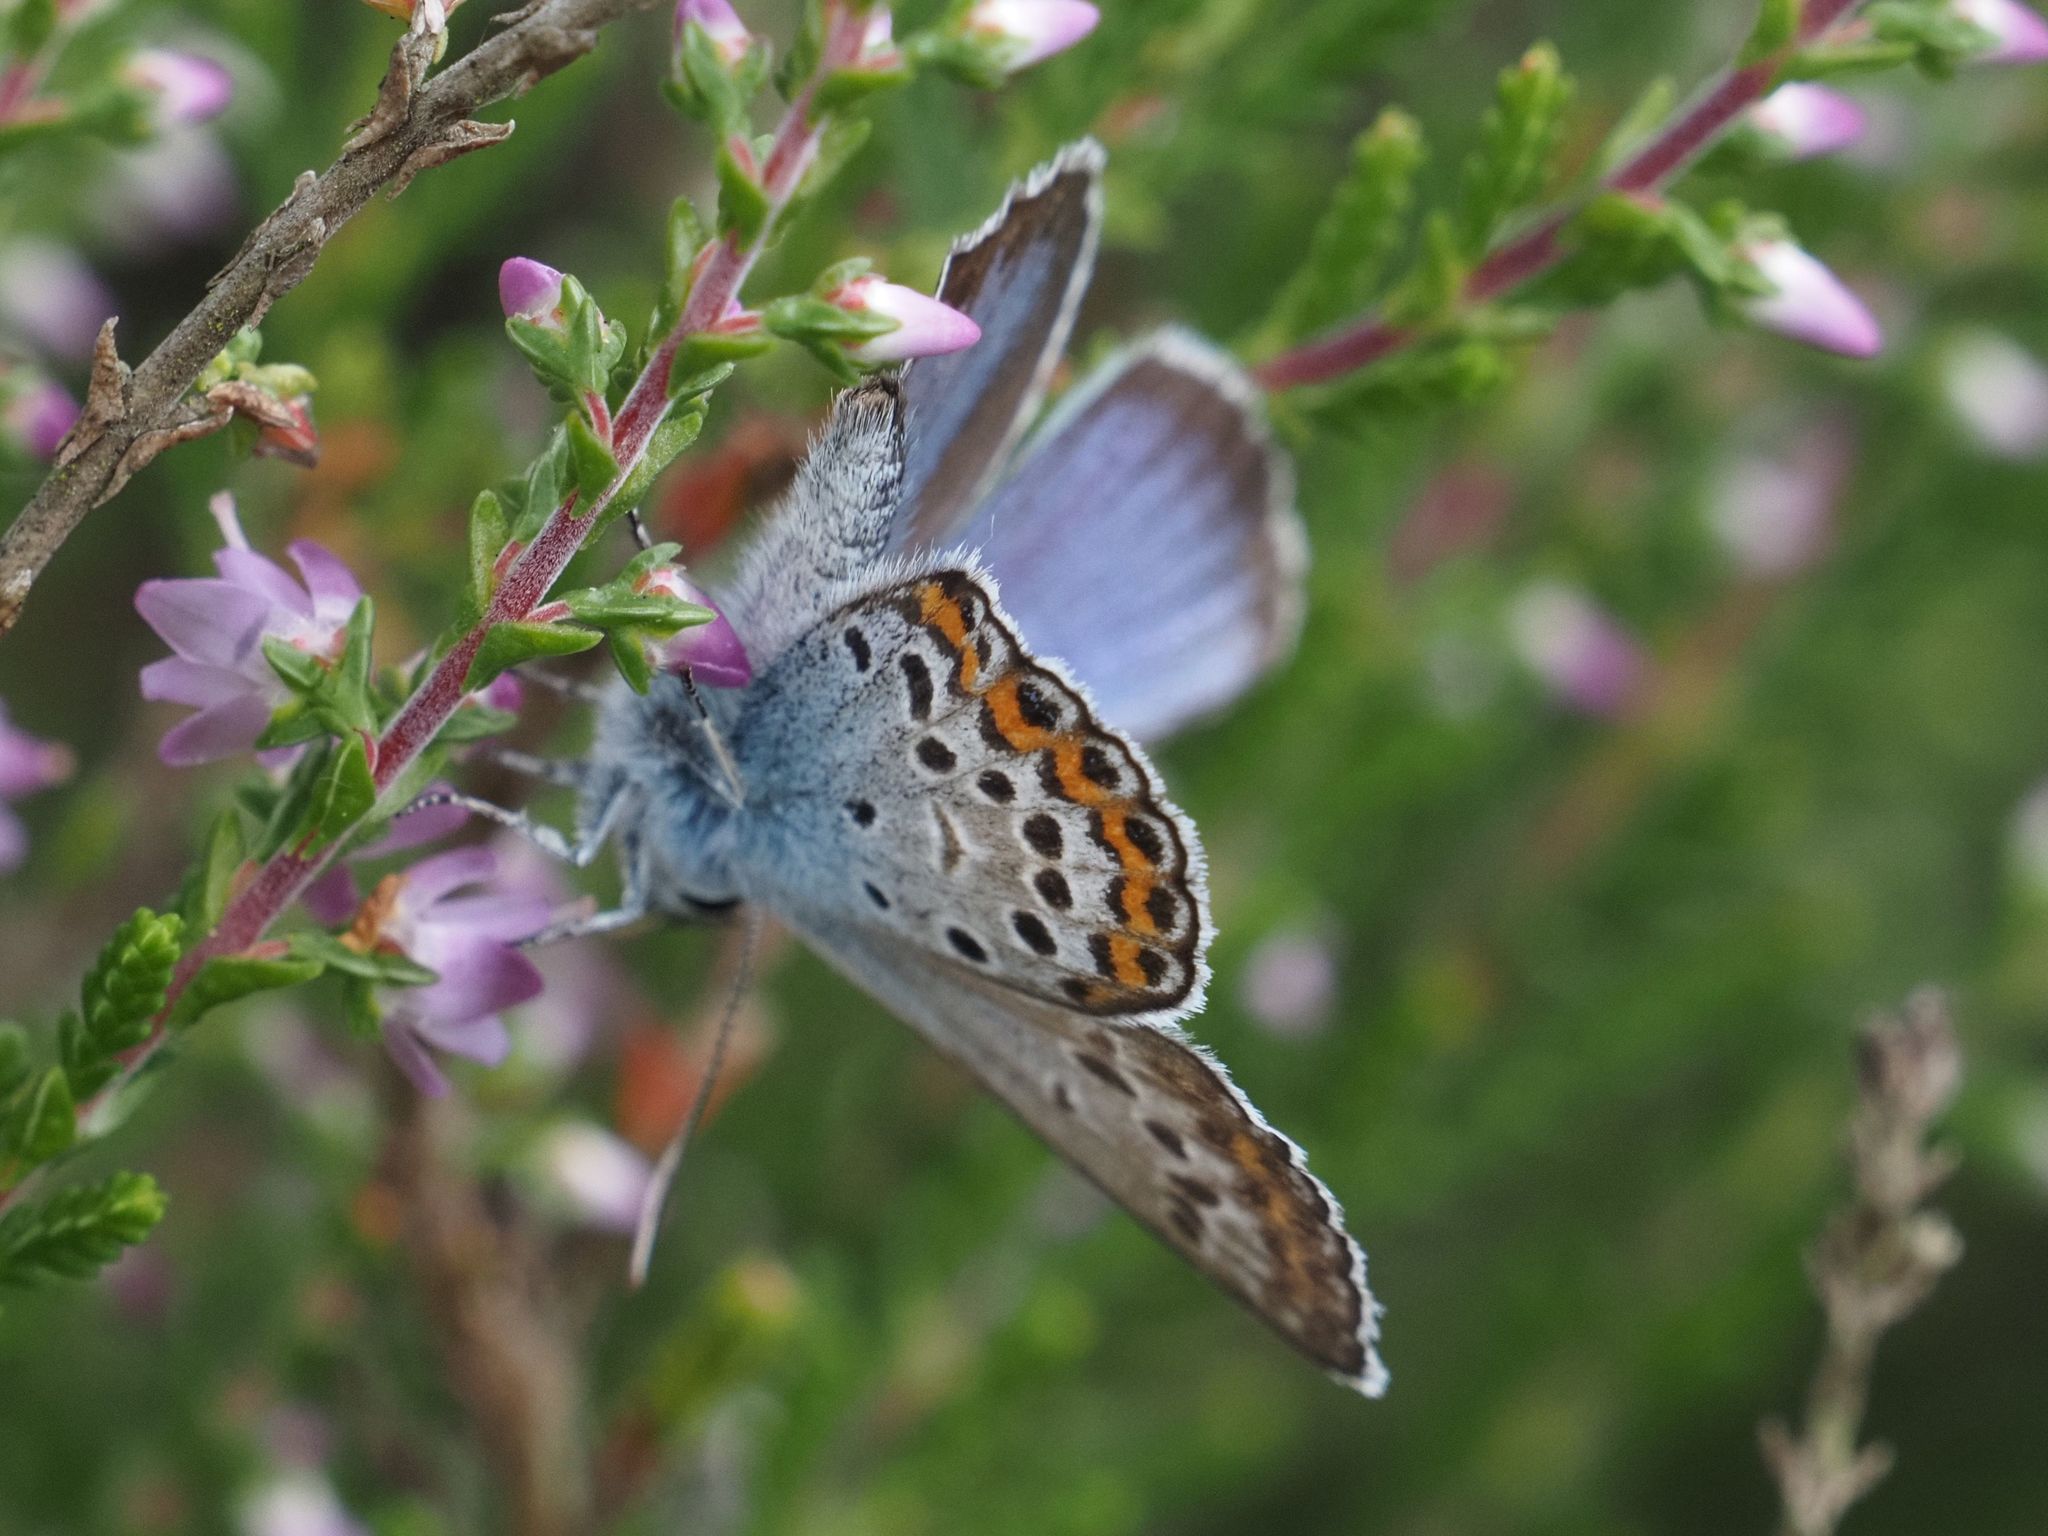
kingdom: Animalia
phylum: Arthropoda
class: Insecta
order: Lepidoptera
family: Lycaenidae
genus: Plebejus
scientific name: Plebejus argus
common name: Silver-studded blue
